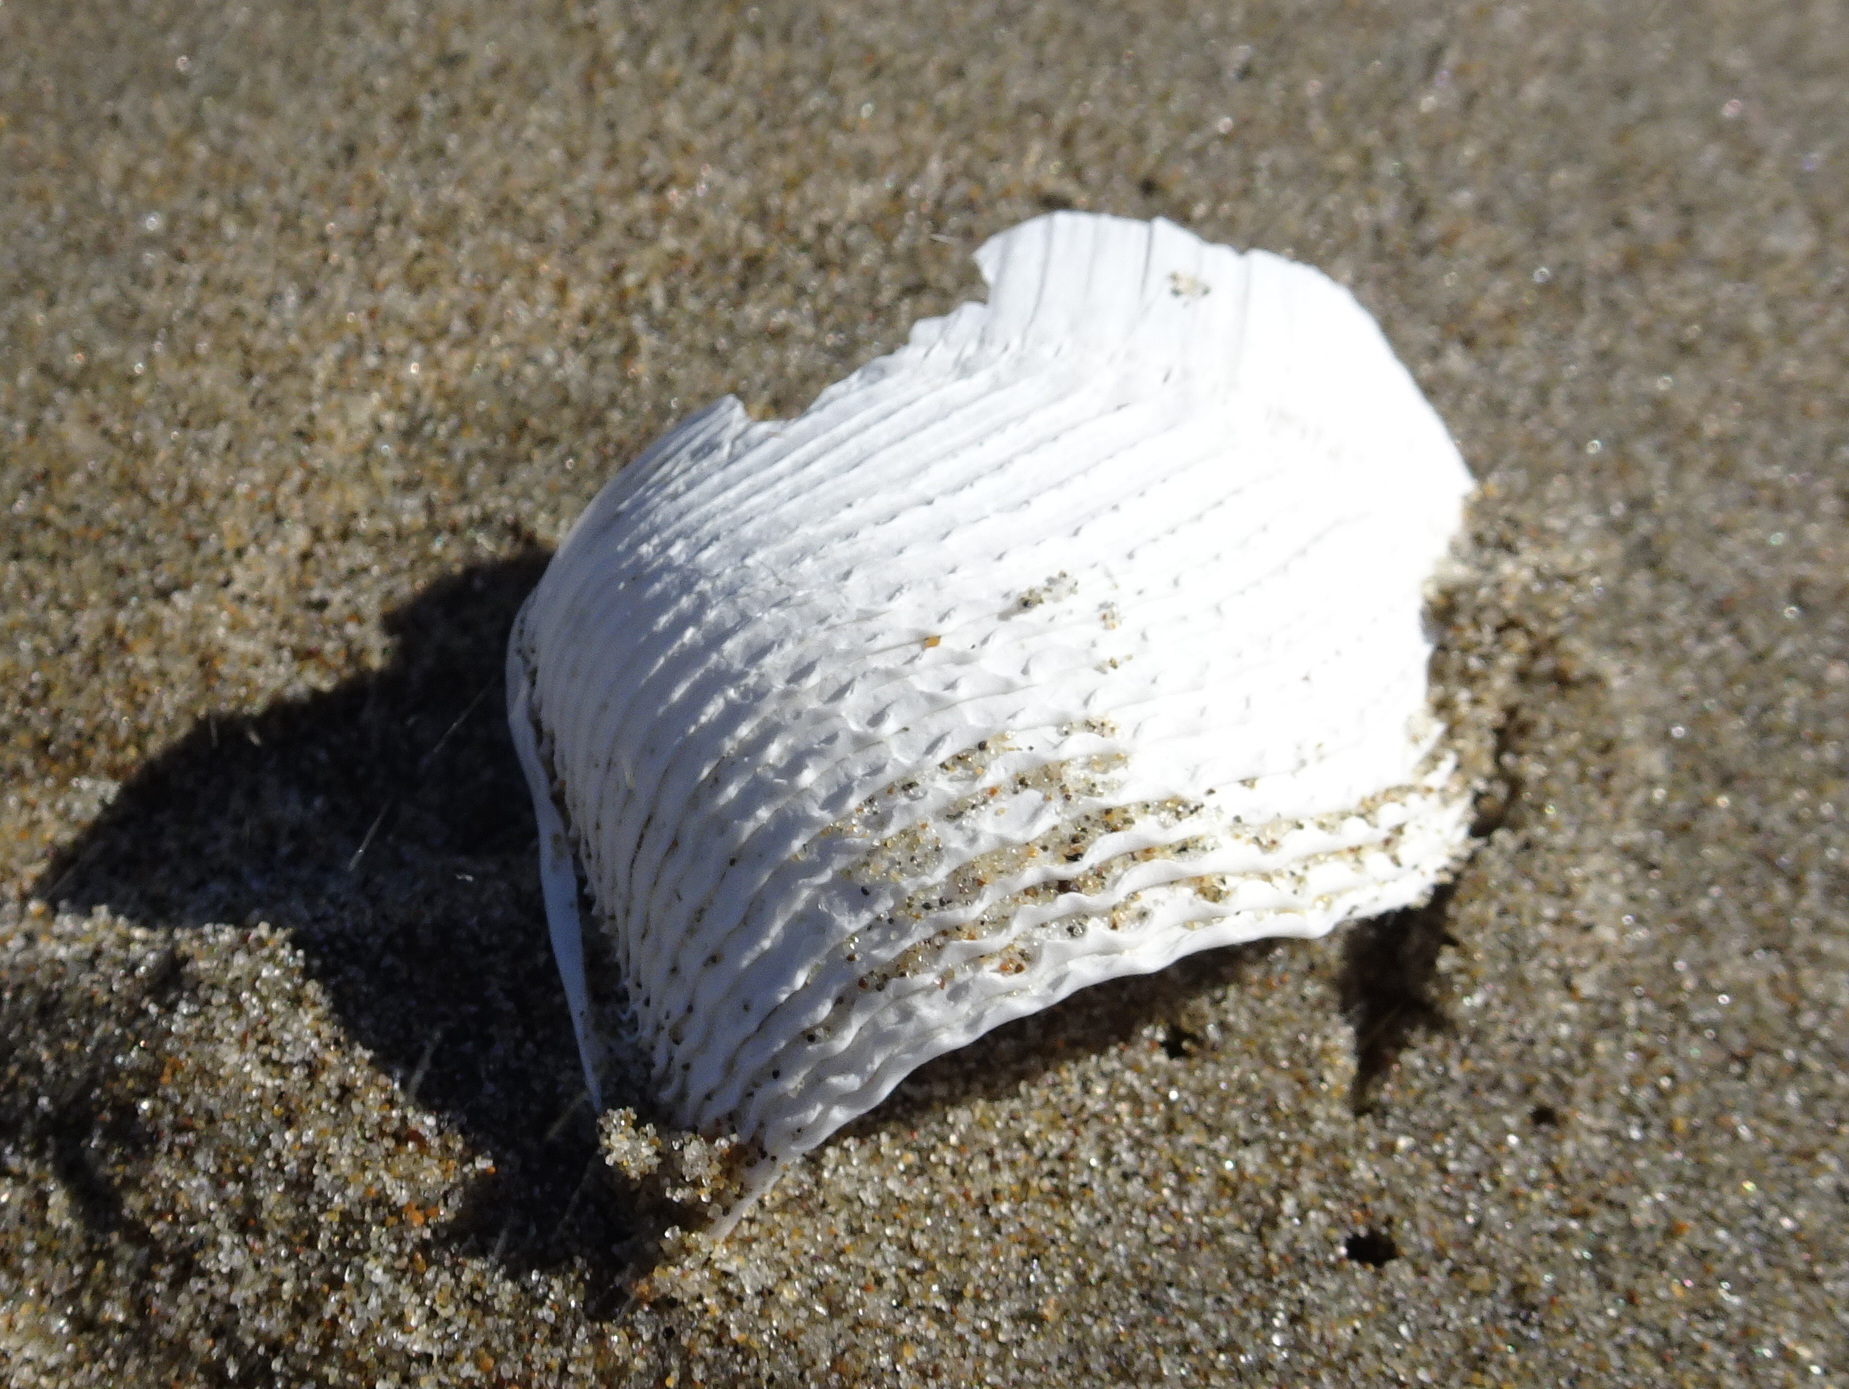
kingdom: Animalia
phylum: Mollusca
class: Bivalvia
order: Myida
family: Pholadidae
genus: Zirfaea
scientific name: Zirfaea pilsbryi
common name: Rough piddock
